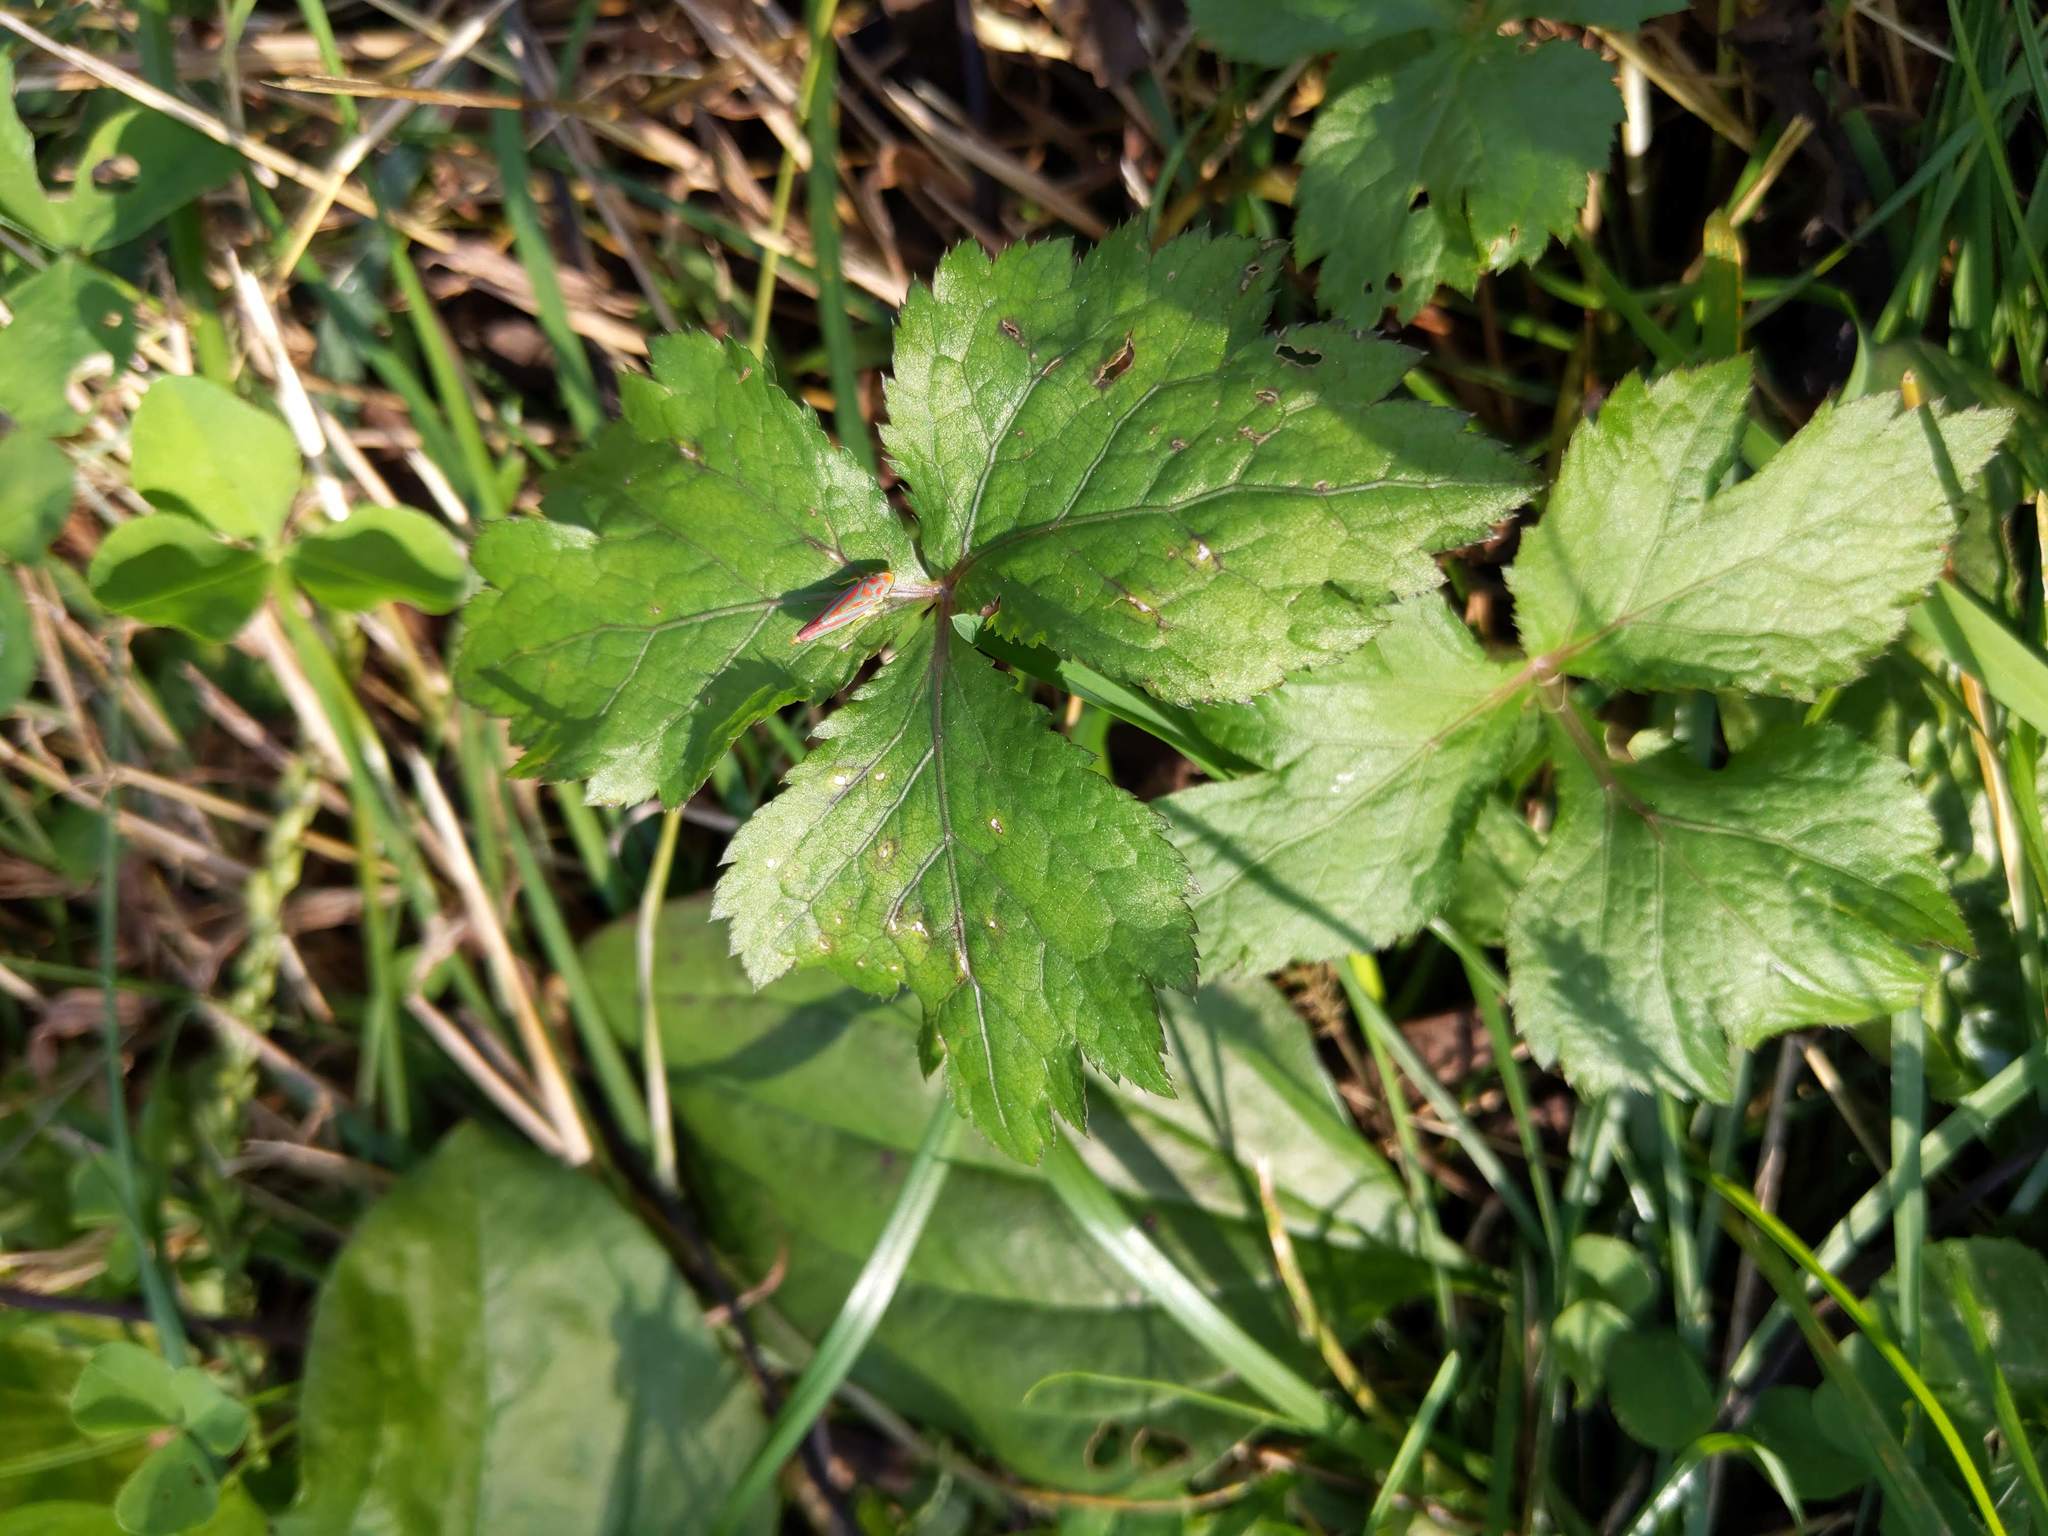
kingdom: Plantae
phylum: Tracheophyta
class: Magnoliopsida
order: Apiales
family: Apiaceae
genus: Cryptotaenia
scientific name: Cryptotaenia canadensis
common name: Honewort
